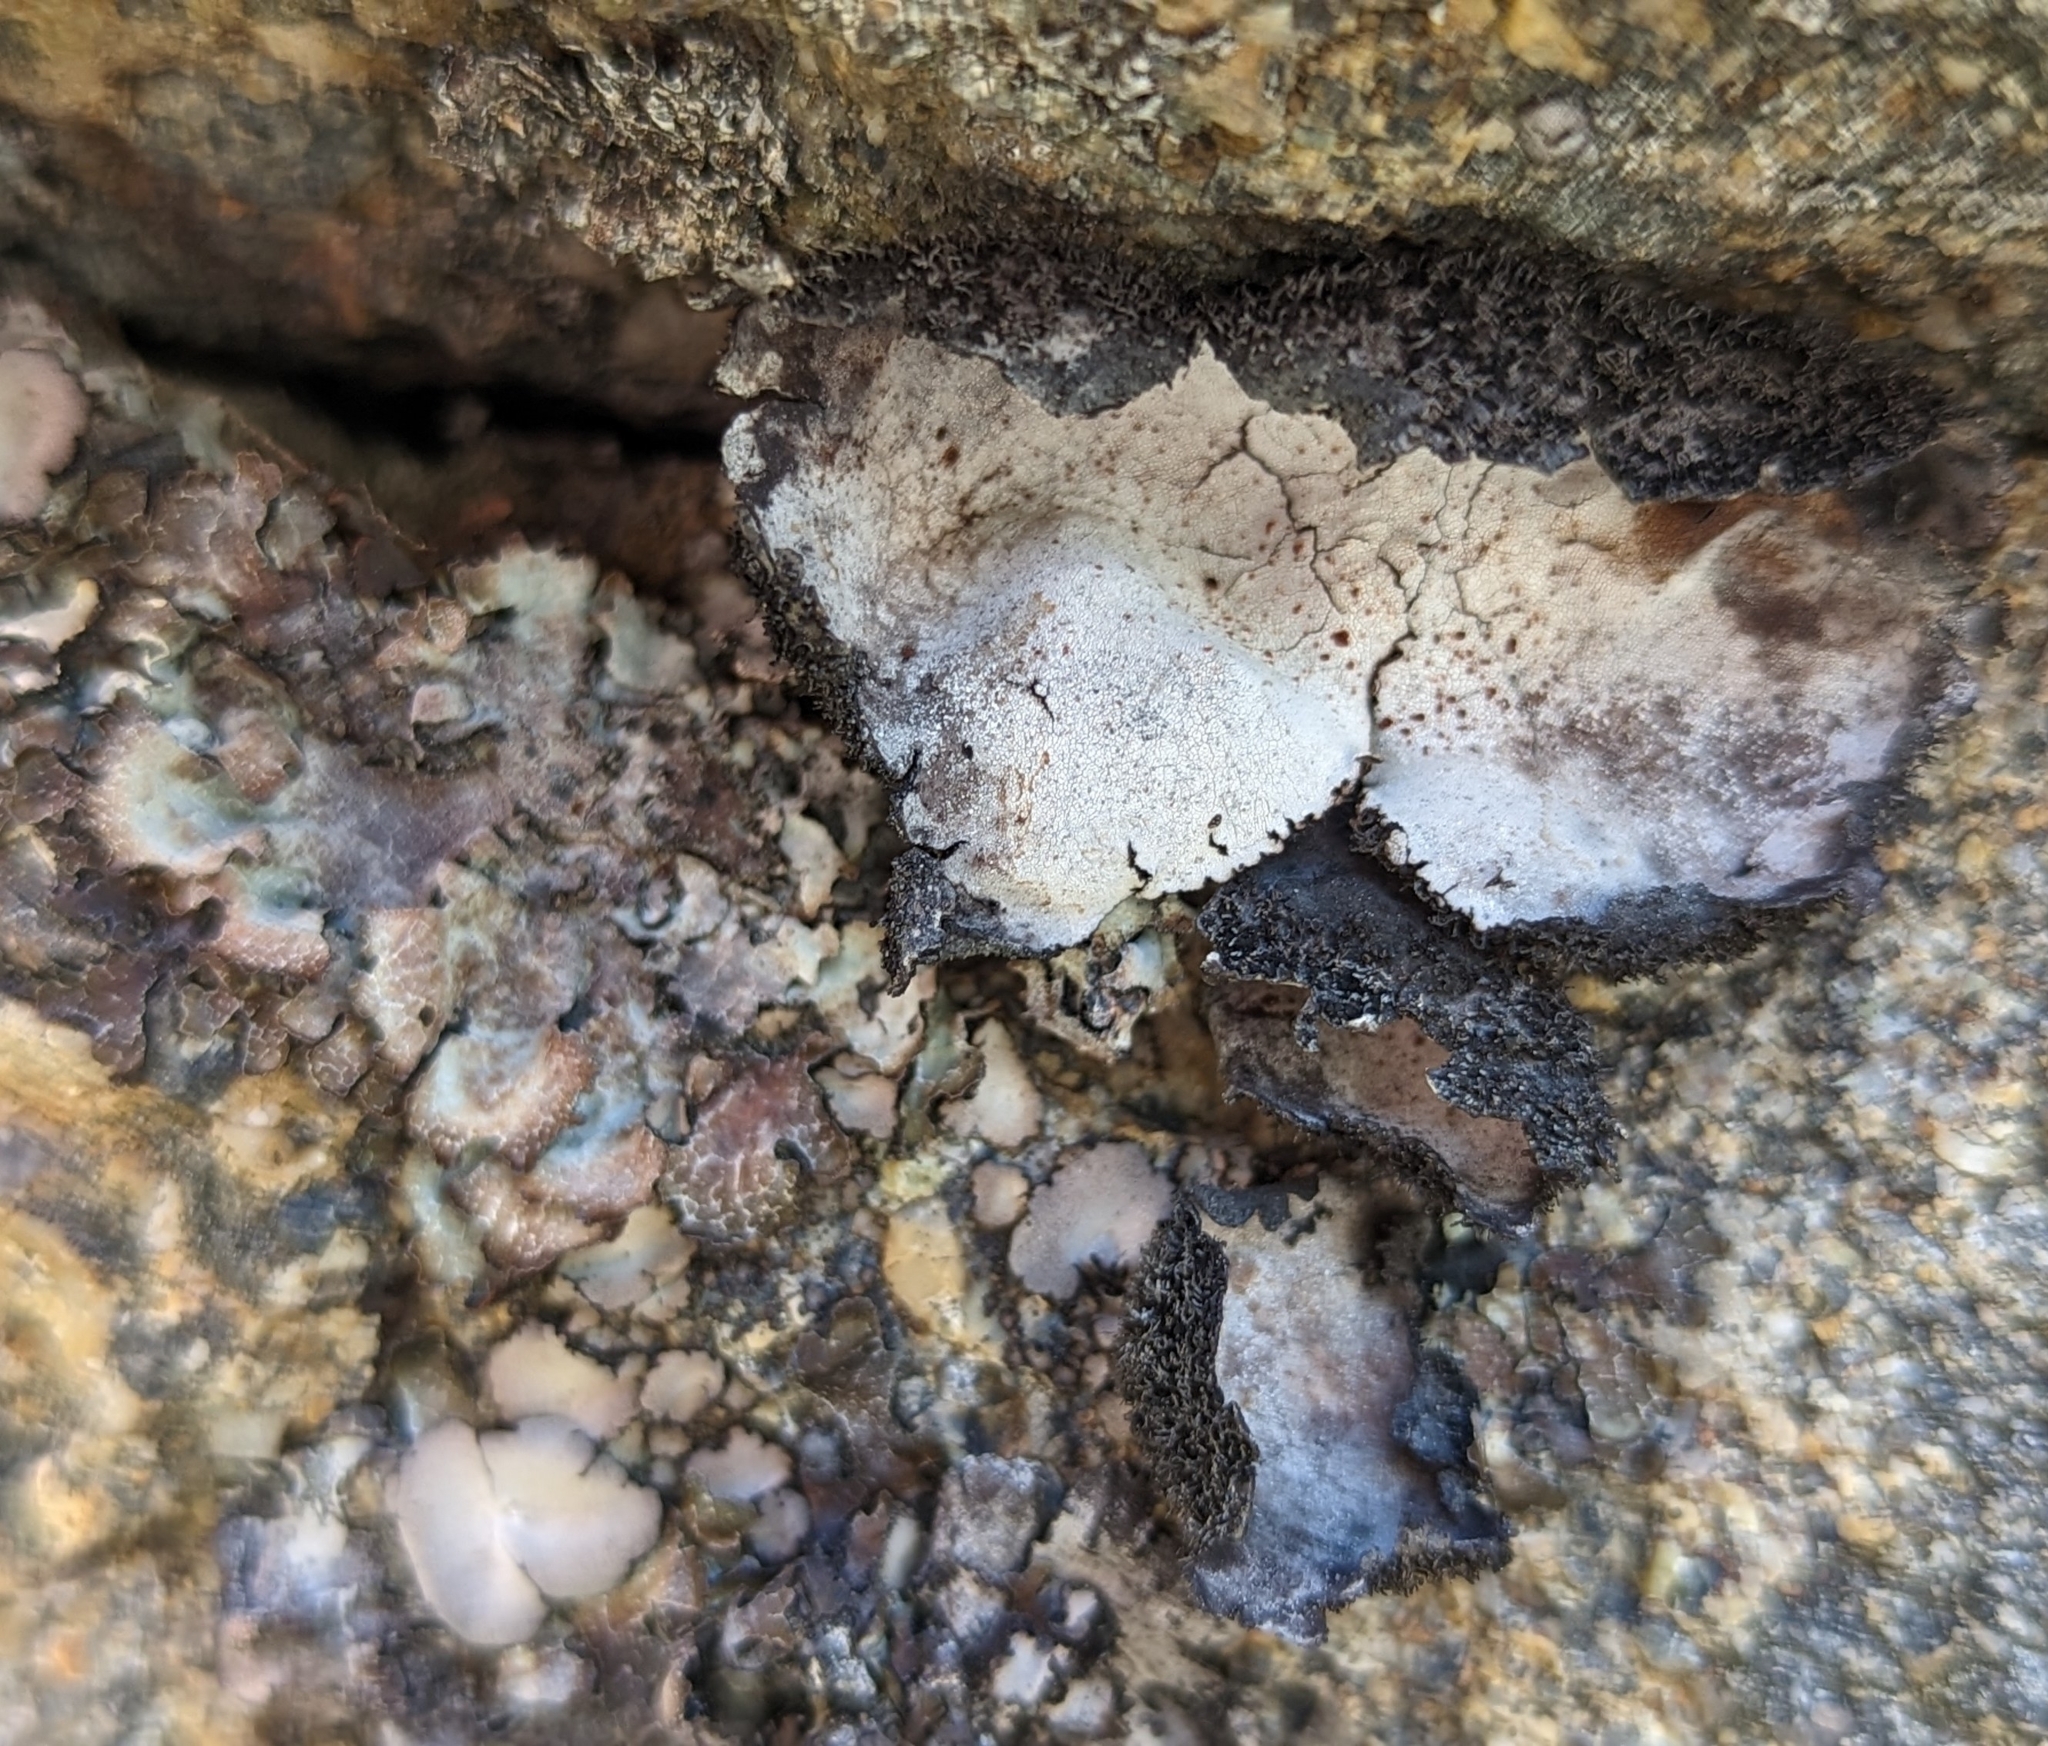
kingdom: Fungi
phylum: Ascomycota
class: Lecanoromycetes
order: Umbilicariales
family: Umbilicariaceae
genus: Umbilicaria
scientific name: Umbilicaria americana
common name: Frosted rock tripe
